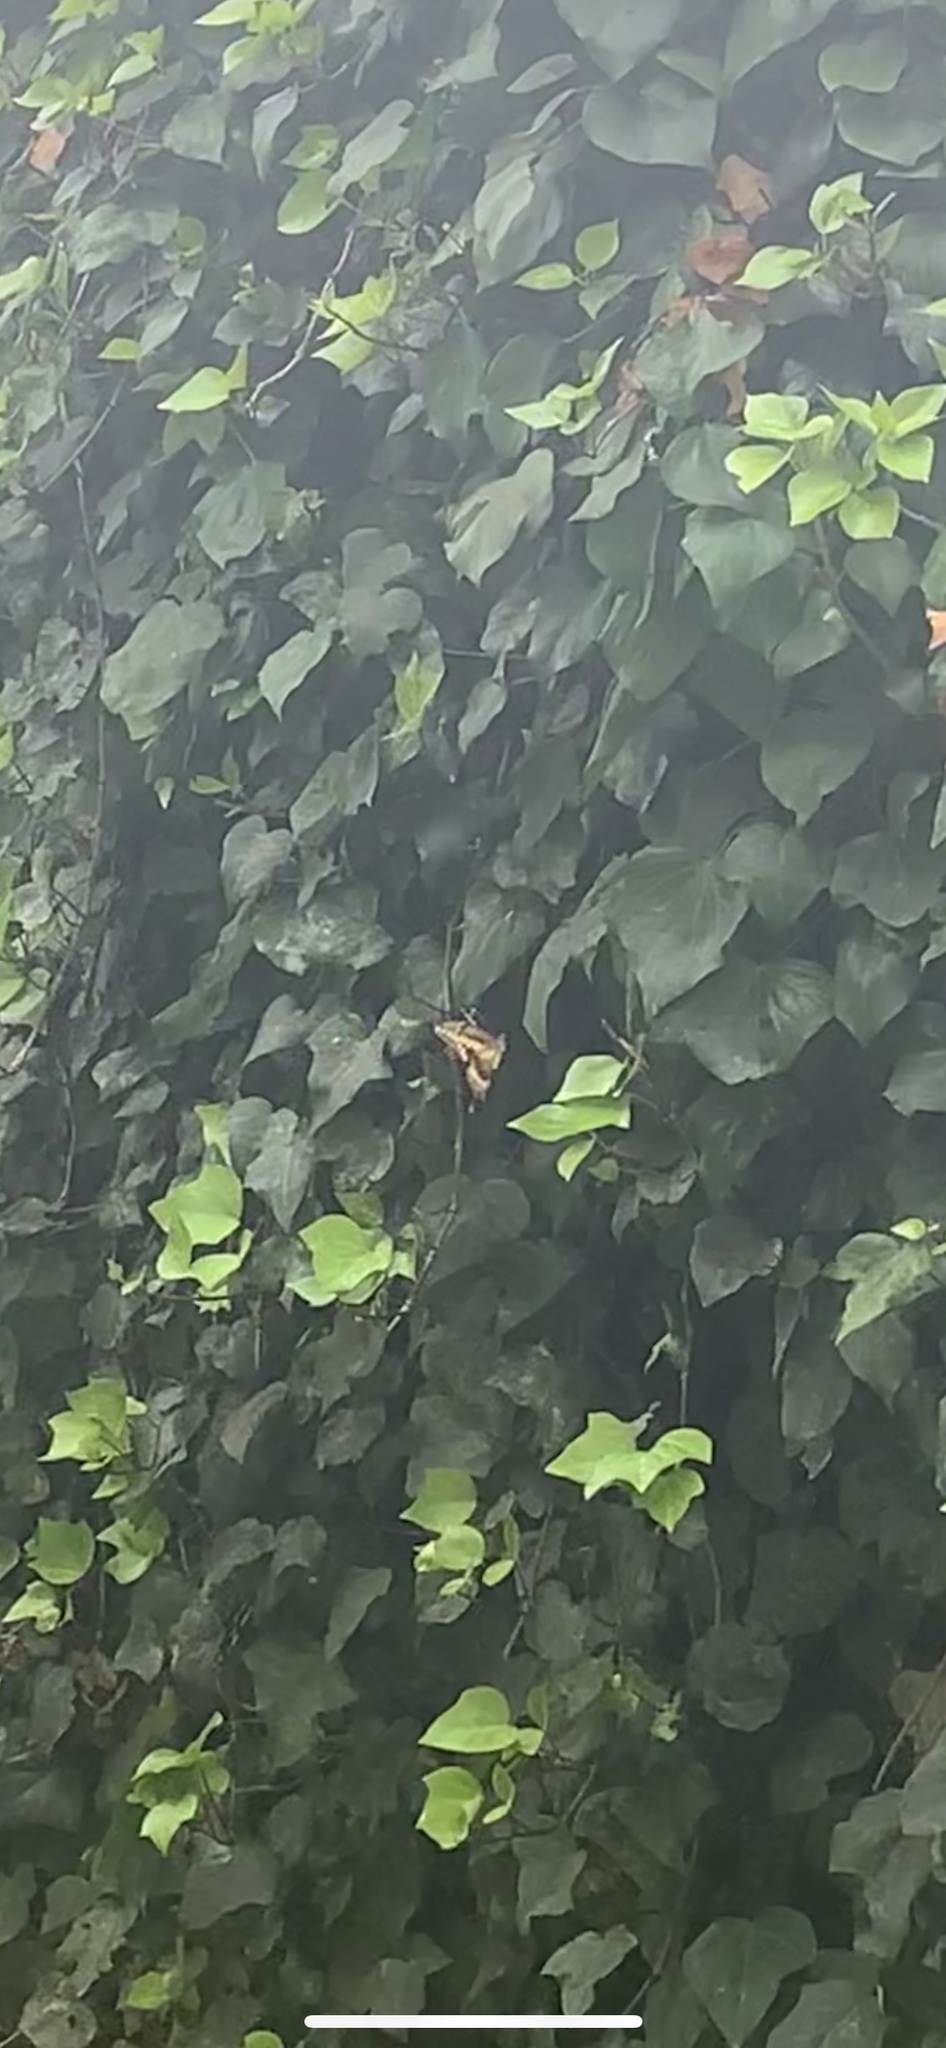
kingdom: Animalia
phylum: Arthropoda
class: Insecta
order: Lepidoptera
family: Papilionidae
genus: Papilio
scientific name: Papilio rumiko
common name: Western giant swallowtail
